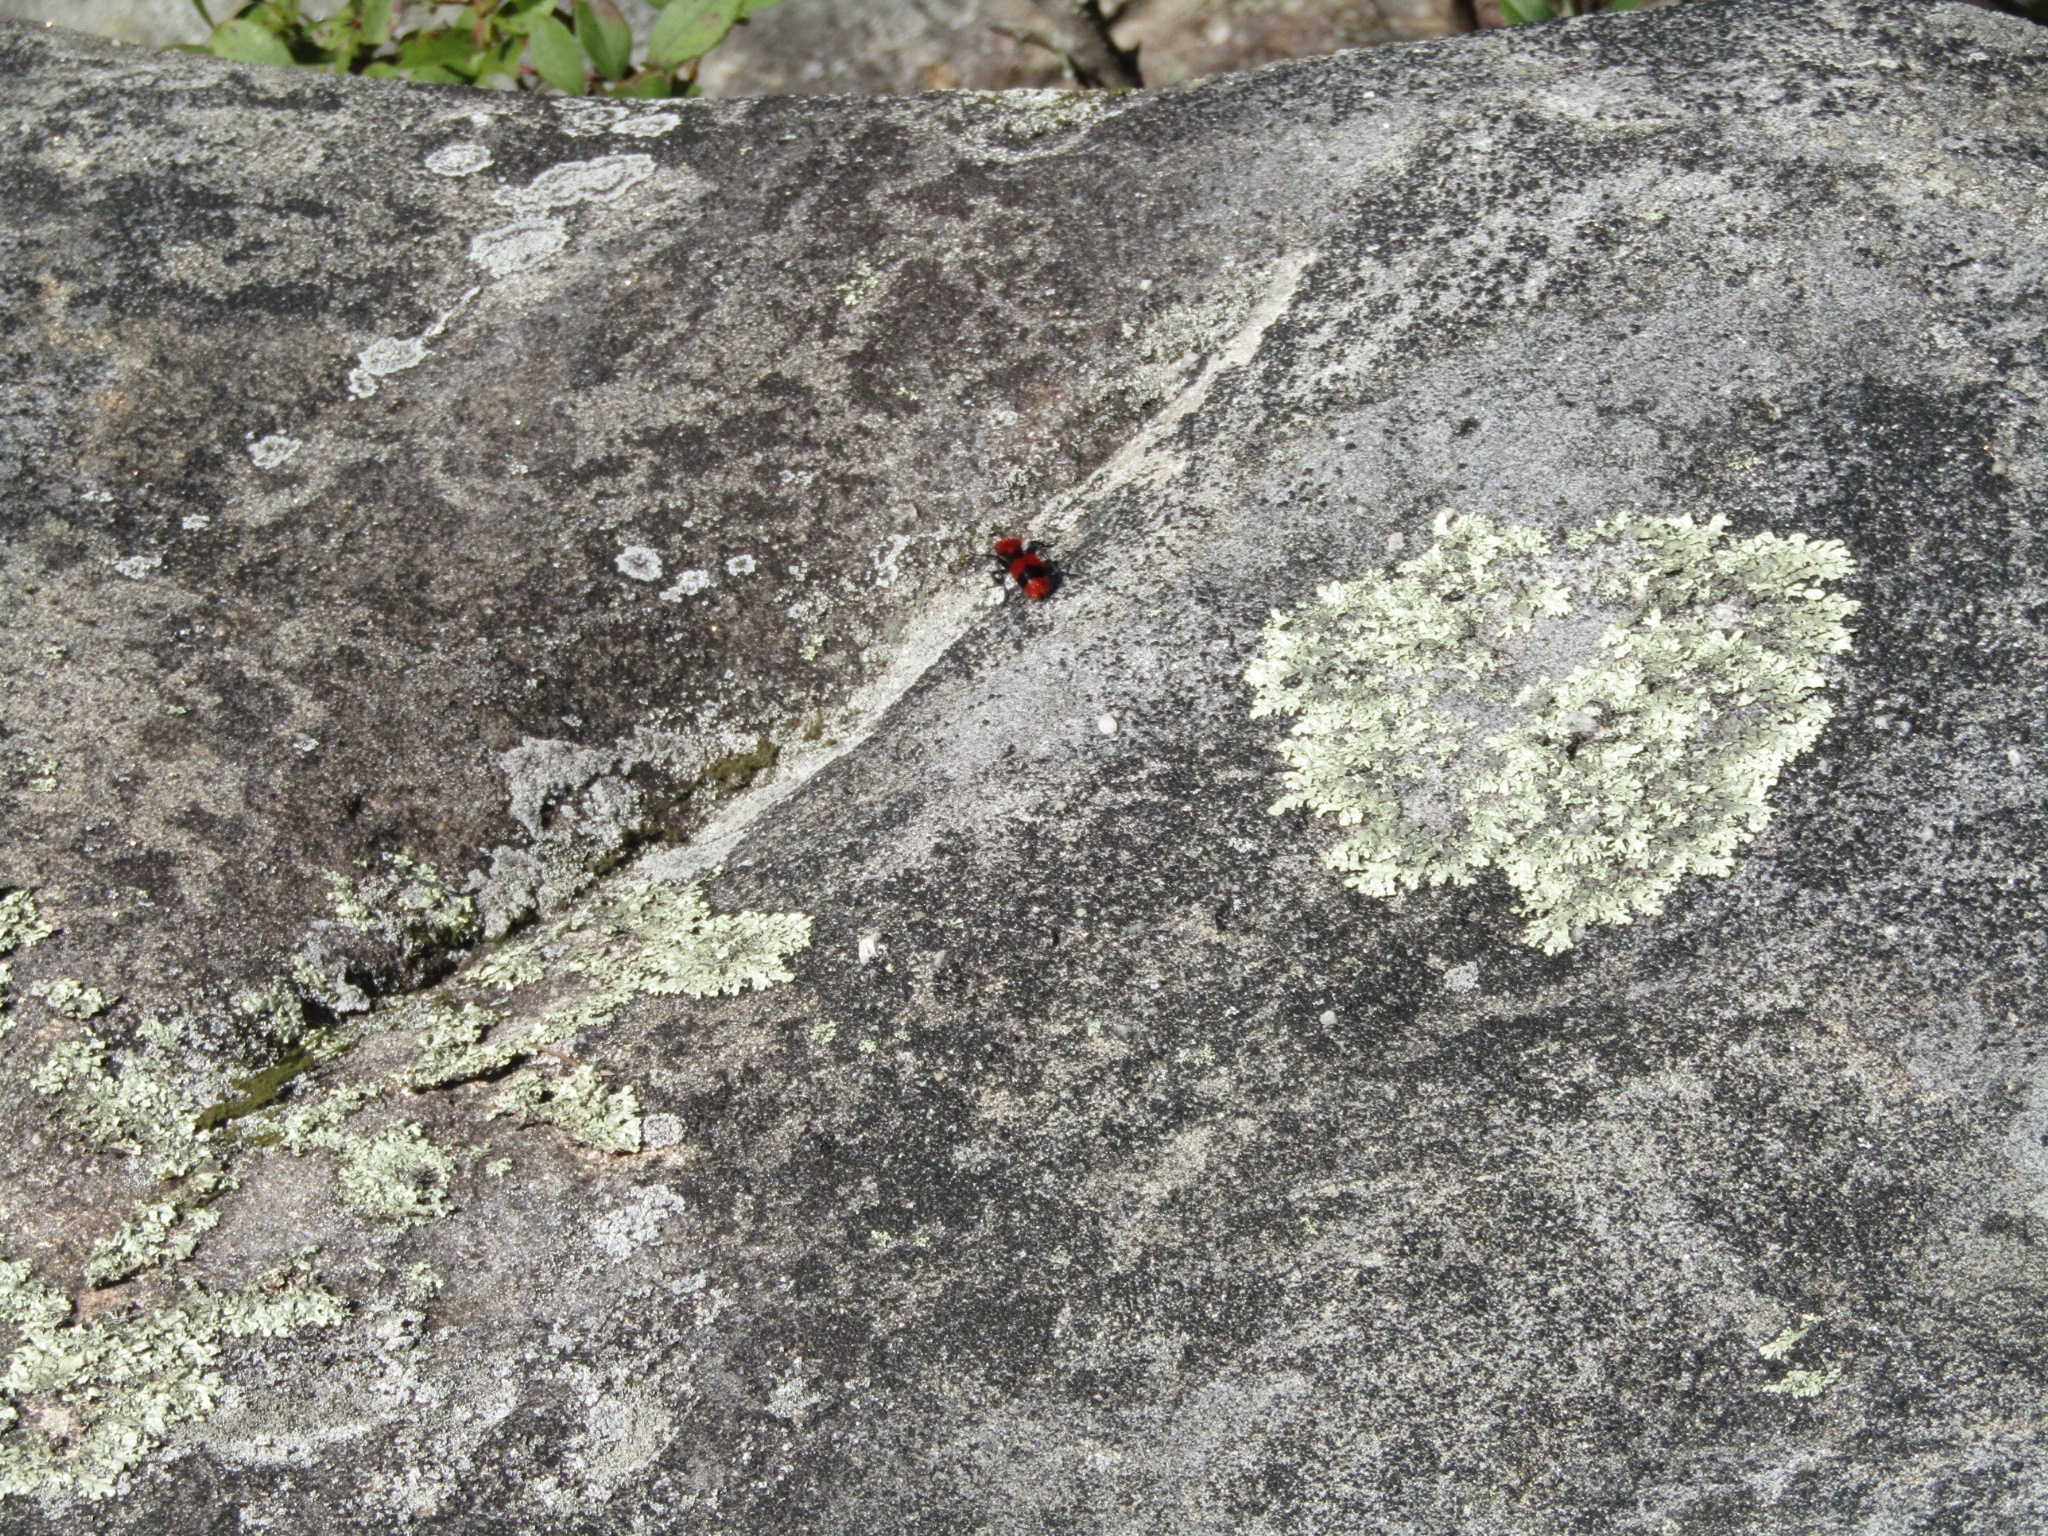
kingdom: Animalia
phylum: Arthropoda
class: Insecta
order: Hymenoptera
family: Mutillidae
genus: Dasymutilla
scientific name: Dasymutilla occidentalis
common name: Common eastern velvet ant
